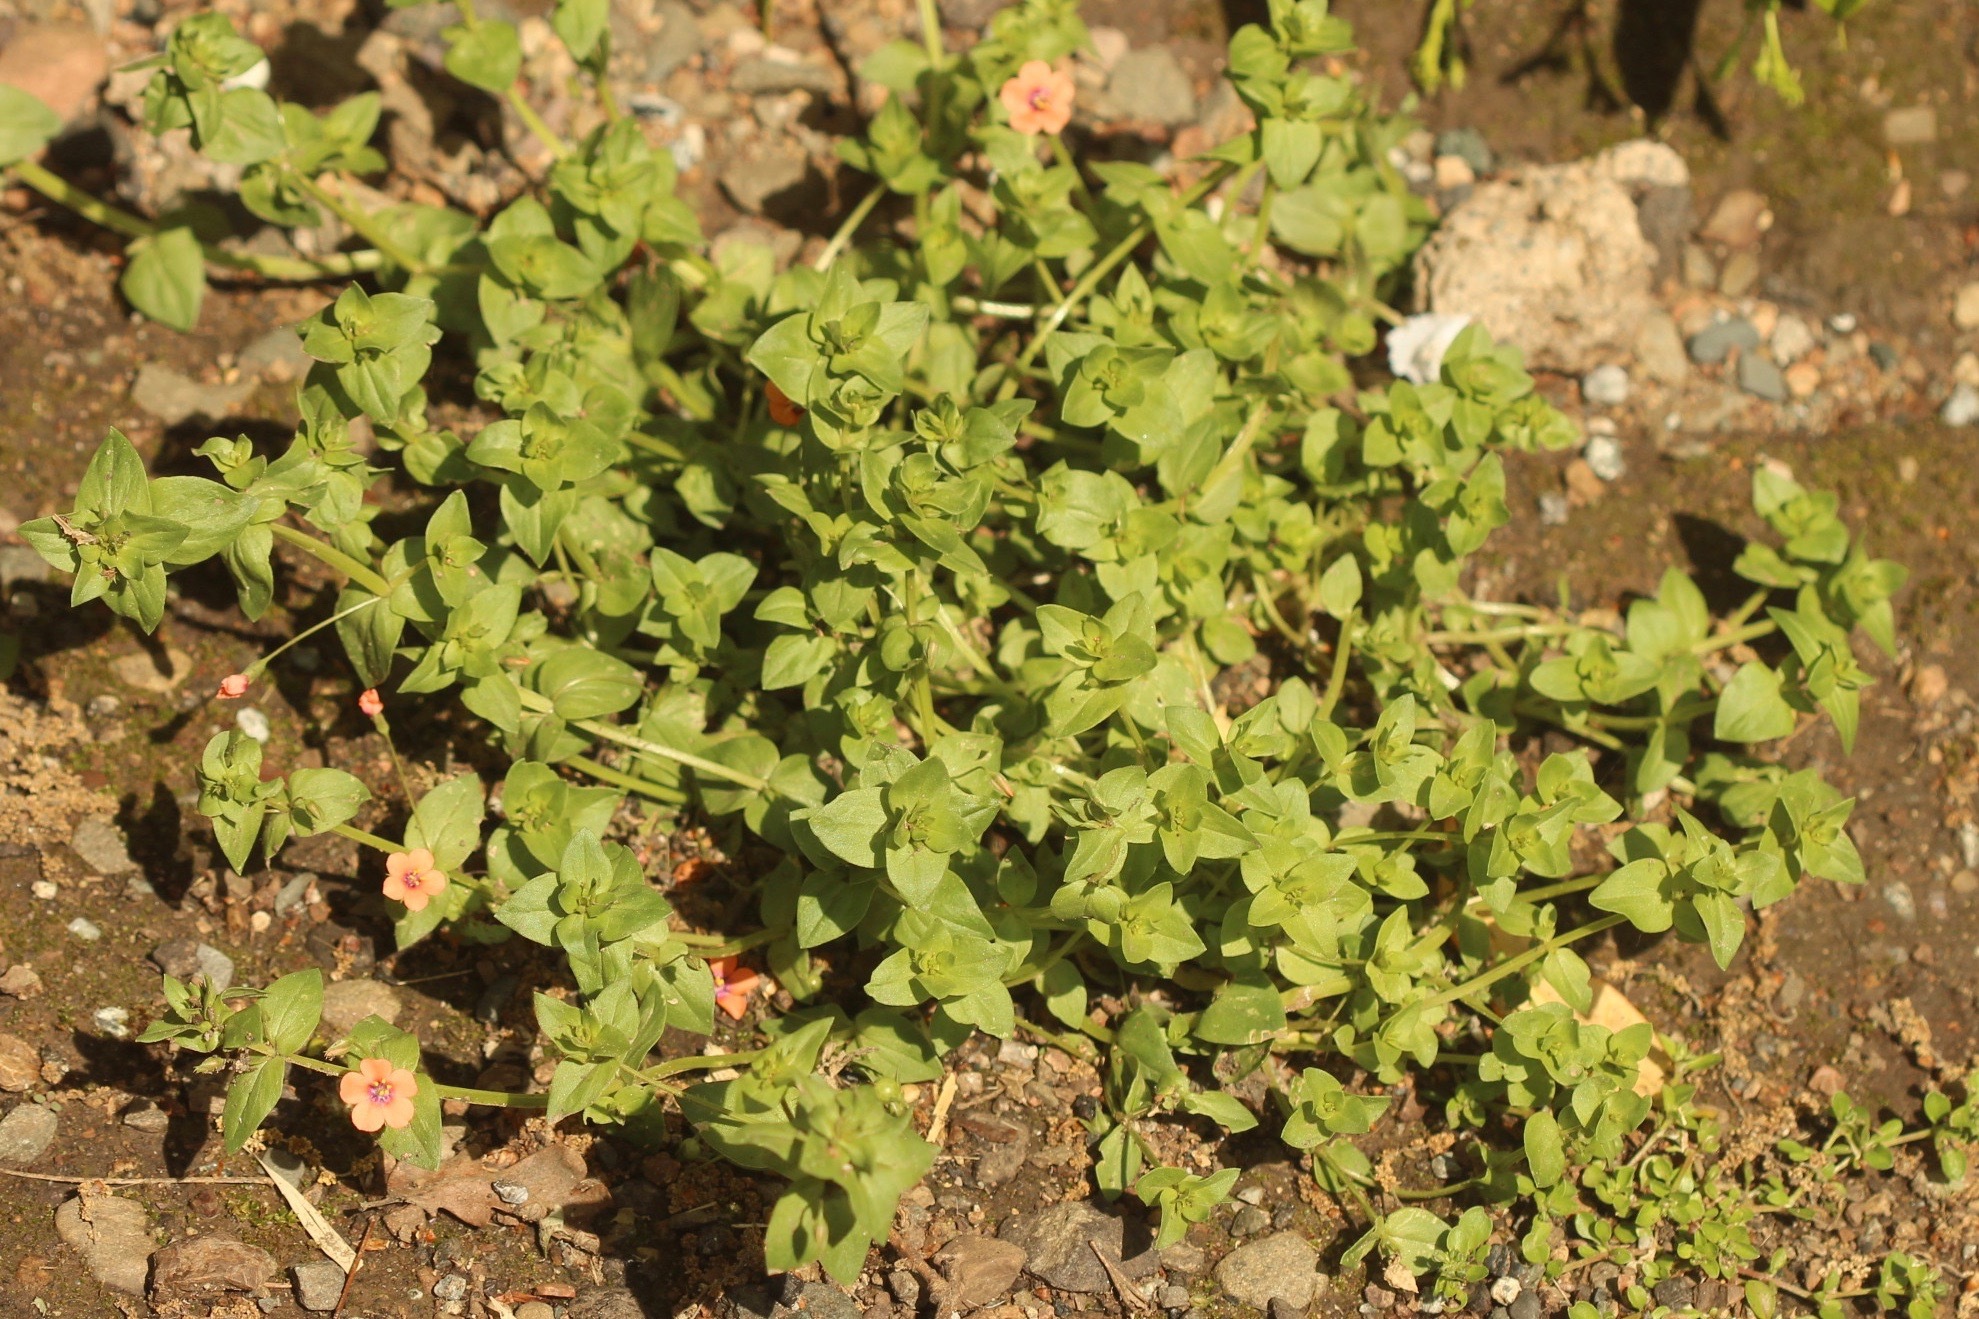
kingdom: Plantae
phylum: Tracheophyta
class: Magnoliopsida
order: Ericales
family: Primulaceae
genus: Lysimachia
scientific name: Lysimachia arvensis
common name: Scarlet pimpernel
